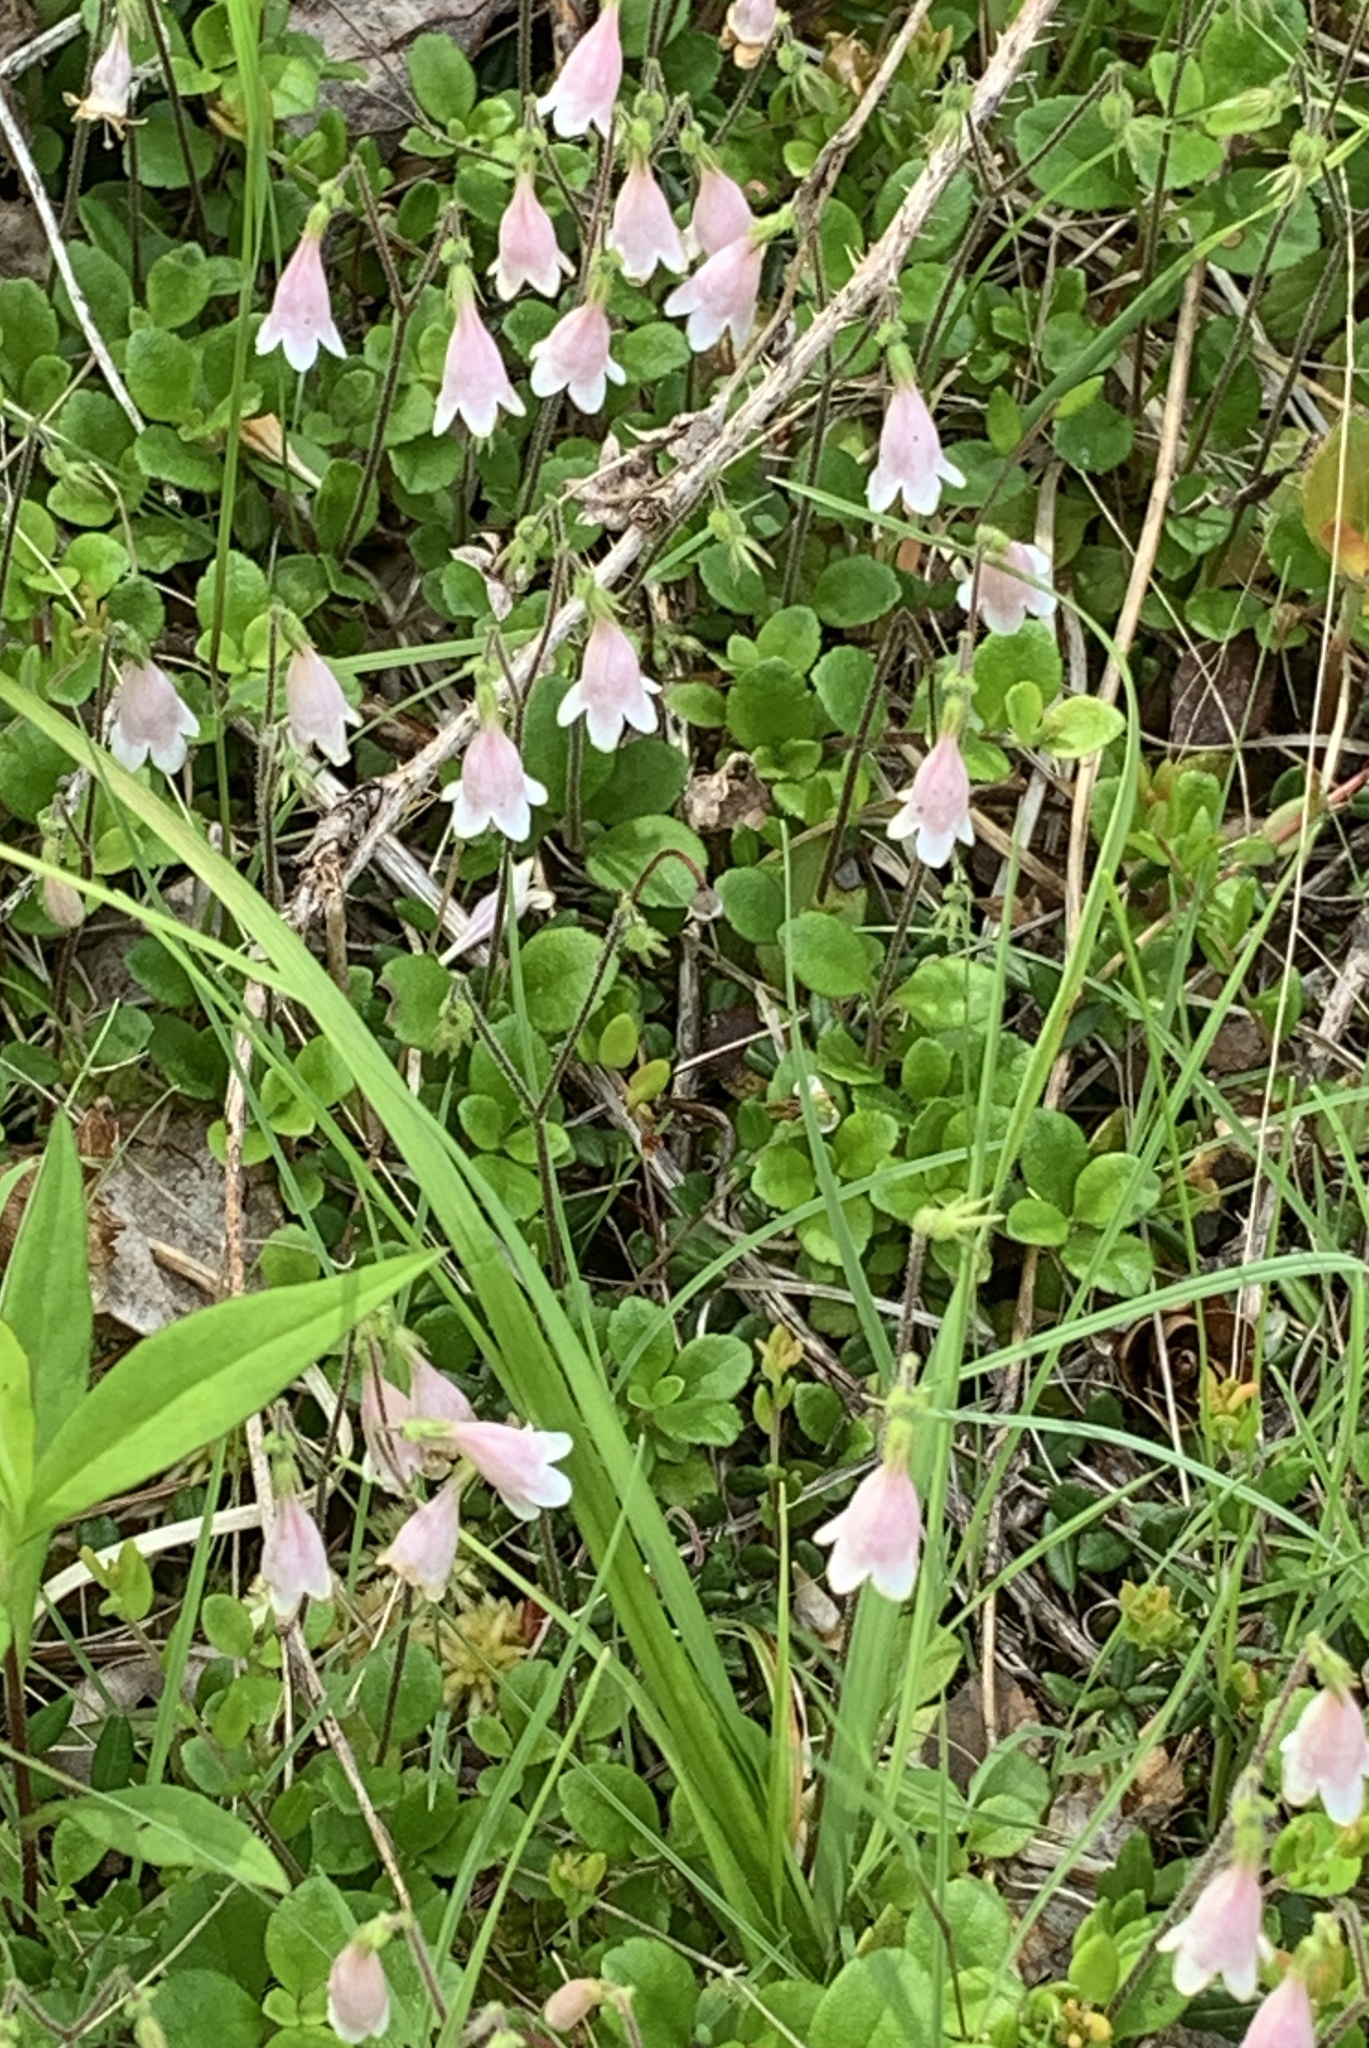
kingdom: Plantae
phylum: Tracheophyta
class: Magnoliopsida
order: Dipsacales
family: Caprifoliaceae
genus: Linnaea
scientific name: Linnaea borealis
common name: Twinflower
